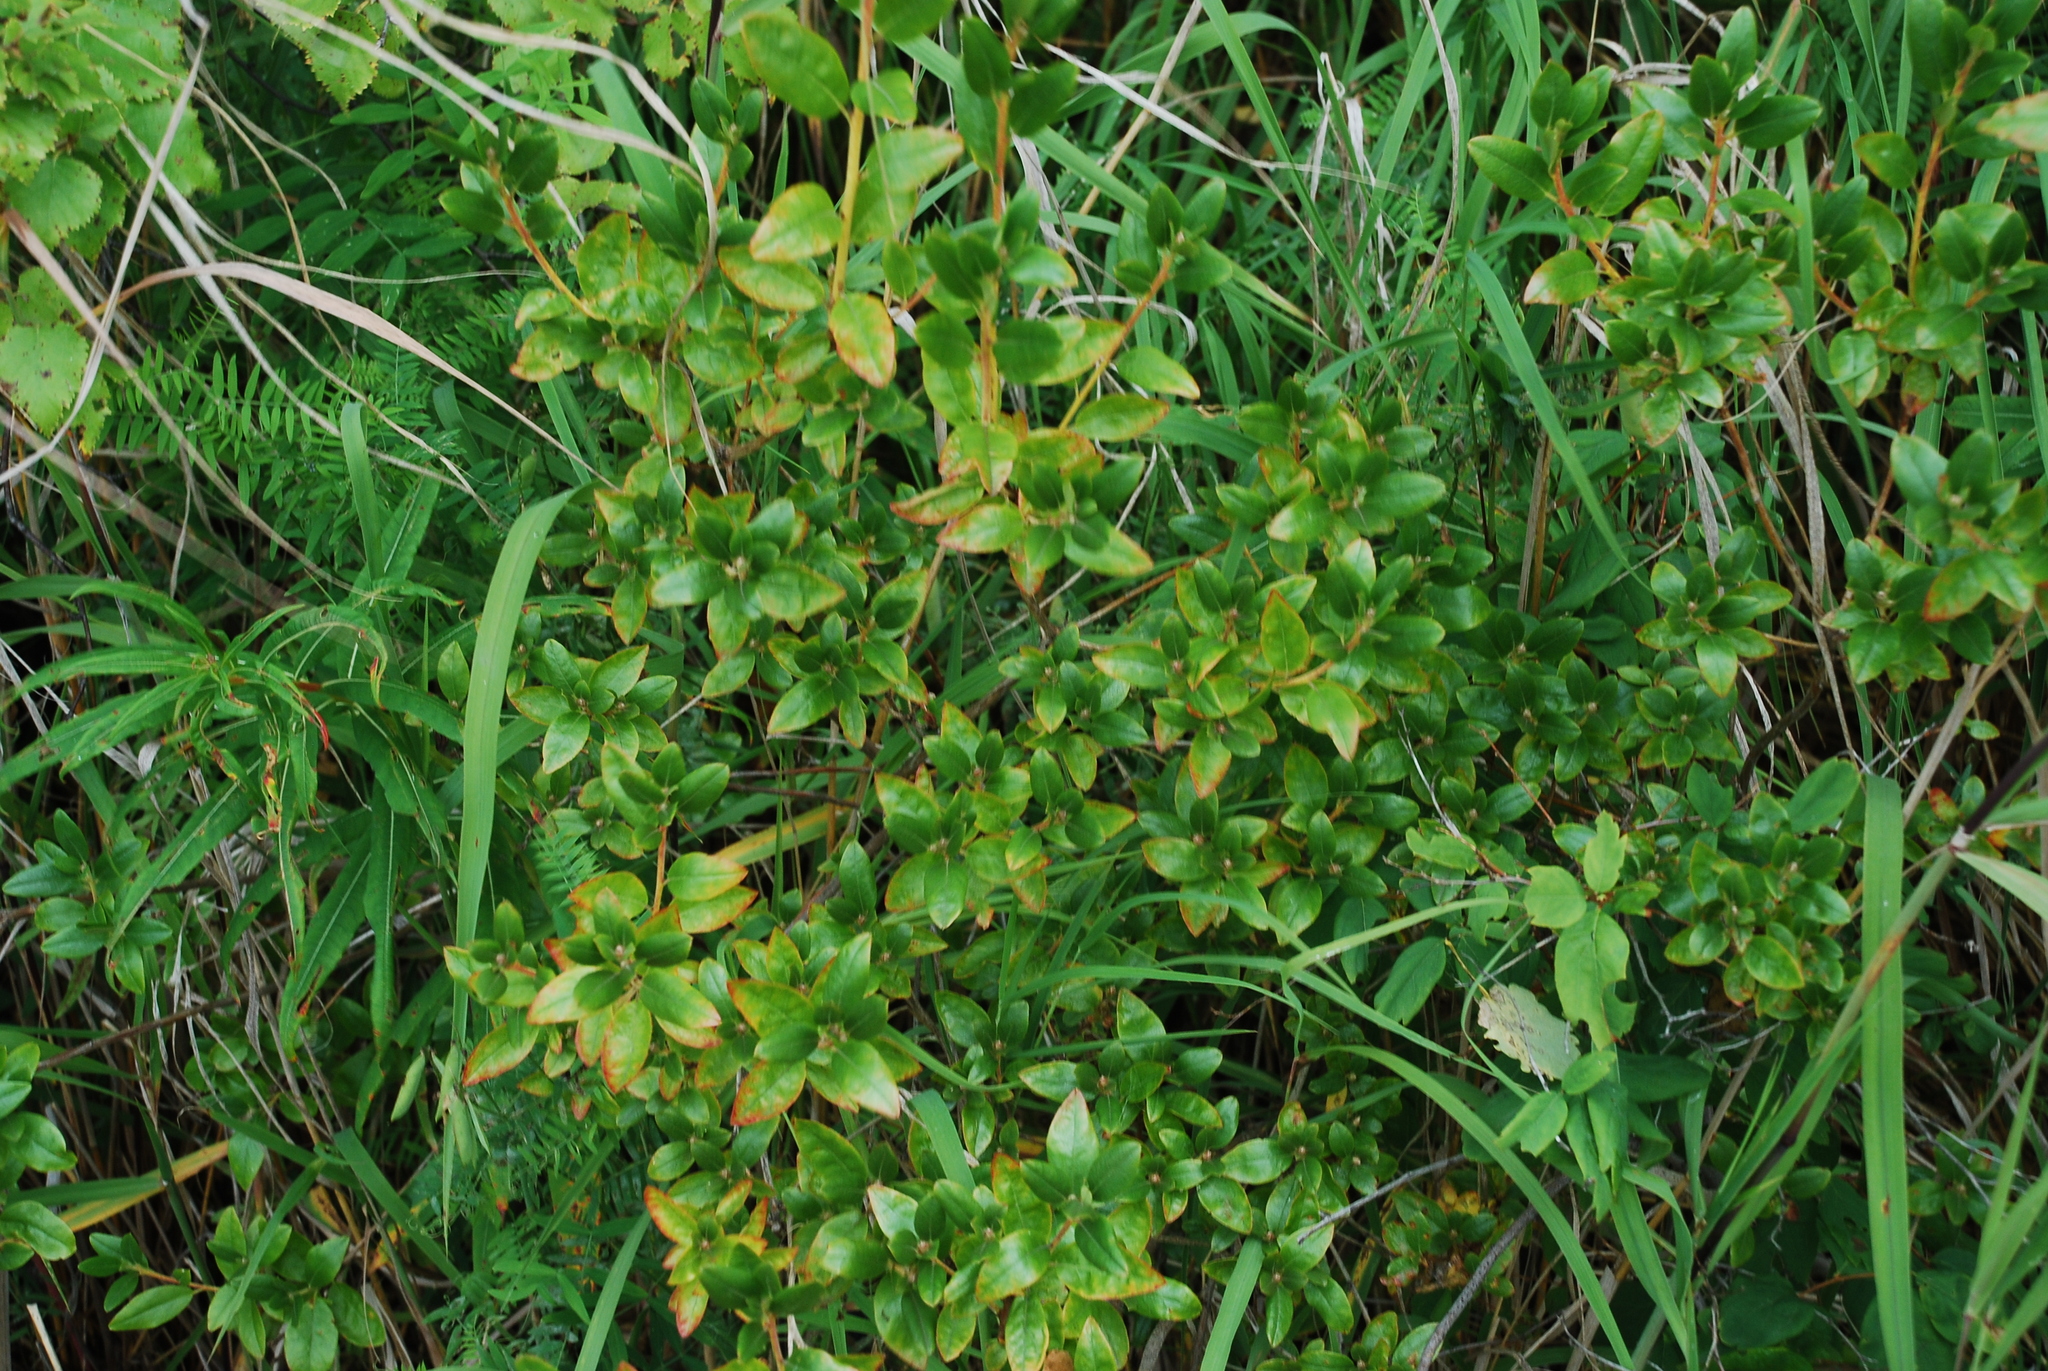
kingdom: Plantae
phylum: Tracheophyta
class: Magnoliopsida
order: Ericales
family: Ericaceae
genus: Rhododendron
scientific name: Rhododendron dauricum
